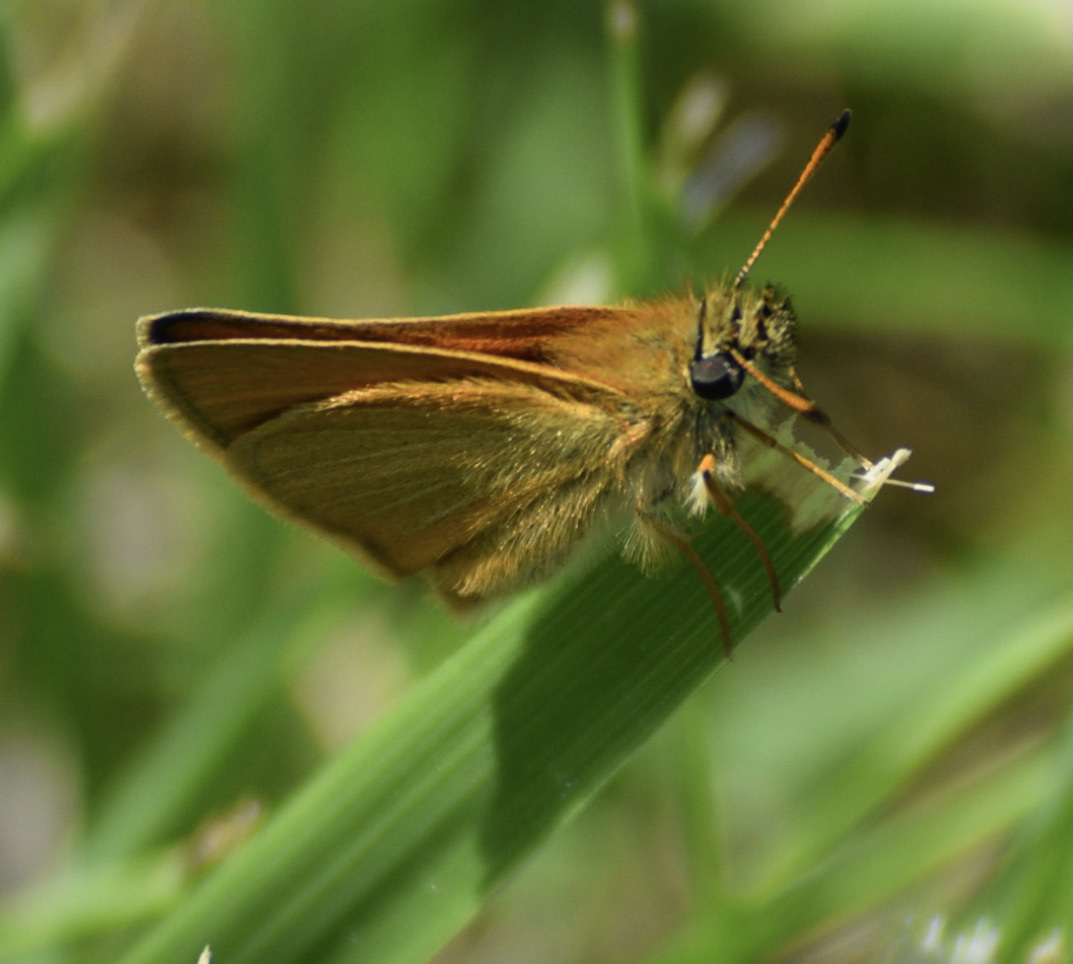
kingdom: Animalia
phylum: Arthropoda
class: Insecta
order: Lepidoptera
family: Hesperiidae
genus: Thymelicus
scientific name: Thymelicus lineola
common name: Essex skipper
